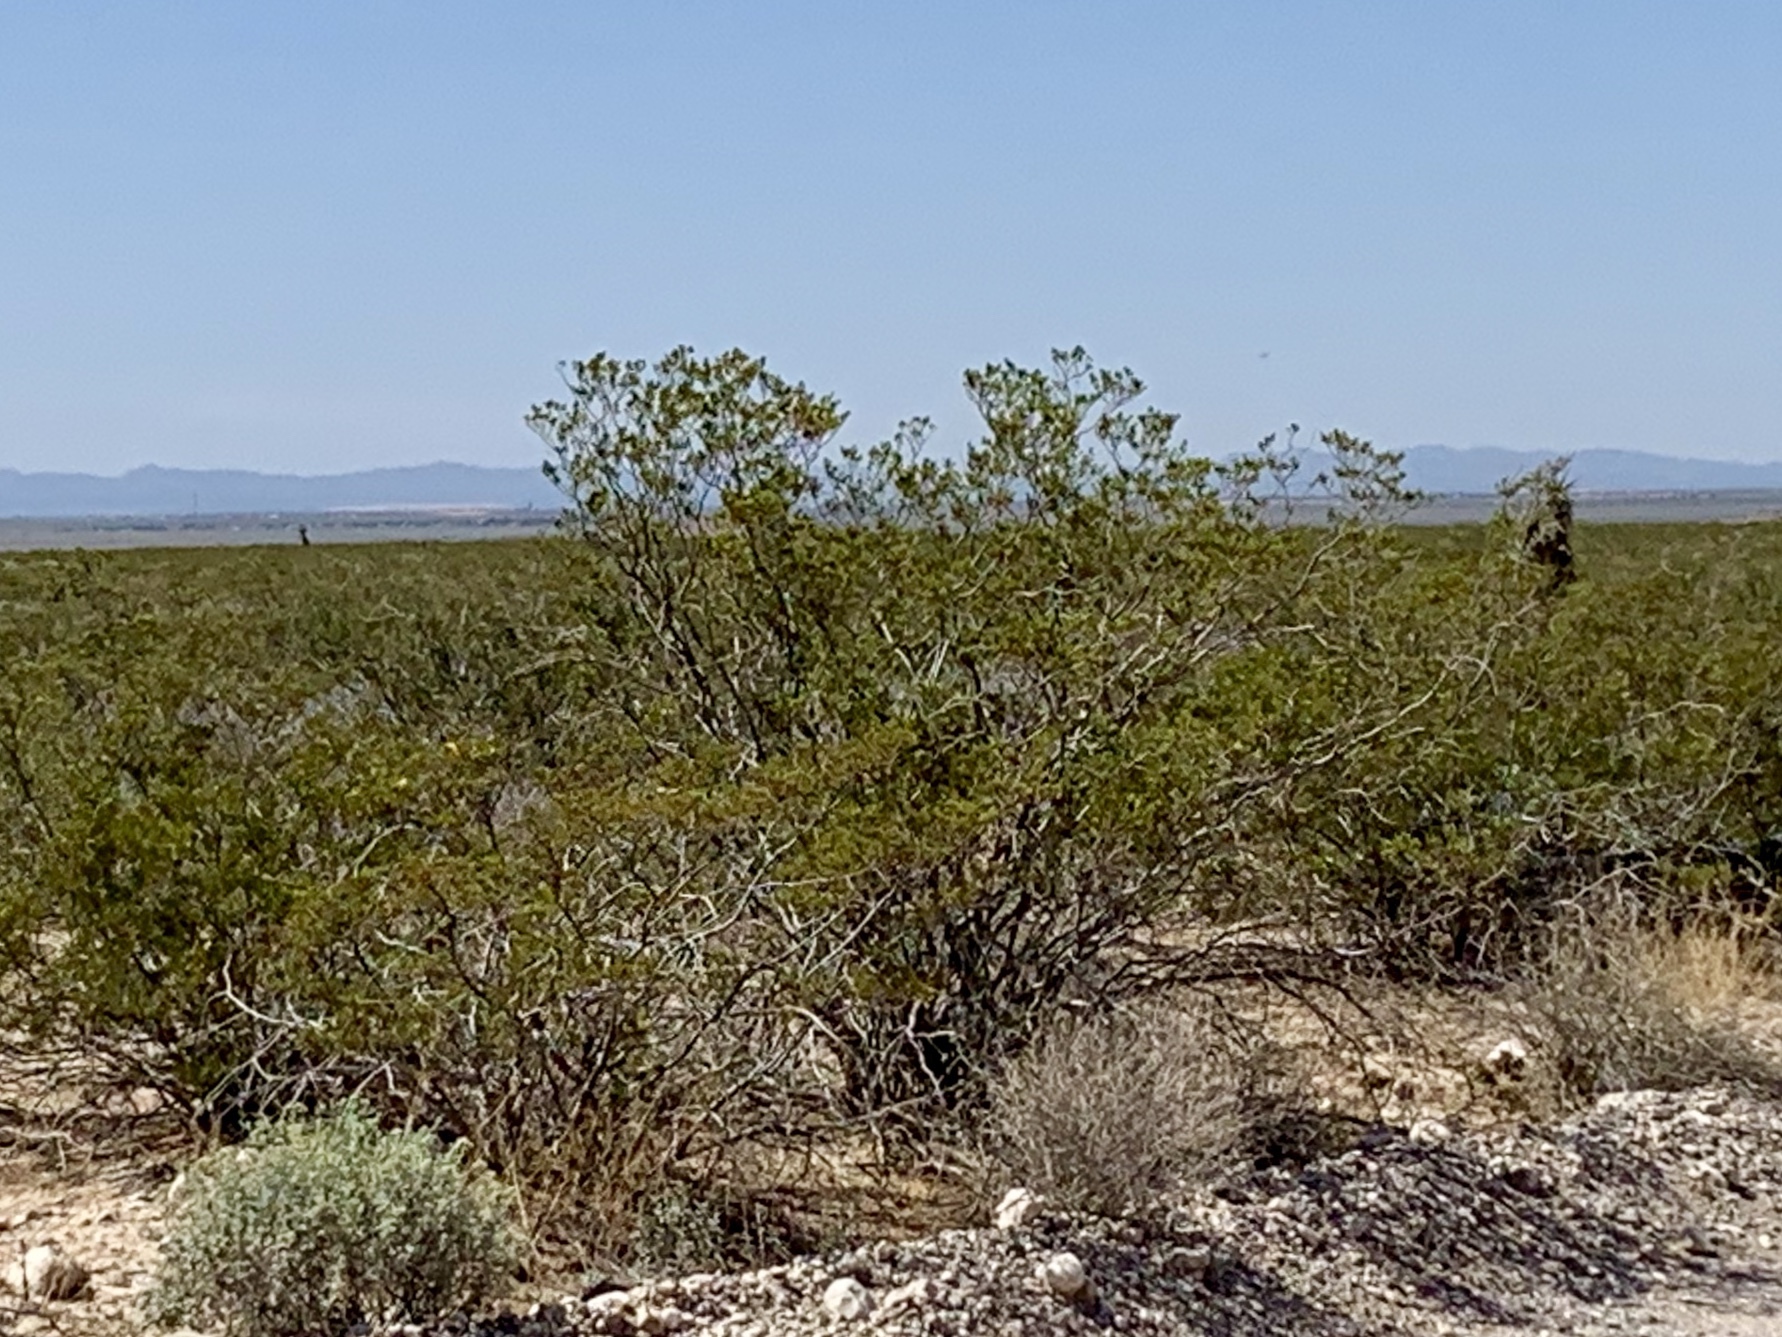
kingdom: Plantae
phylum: Tracheophyta
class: Magnoliopsida
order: Zygophyllales
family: Zygophyllaceae
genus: Larrea
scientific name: Larrea tridentata
